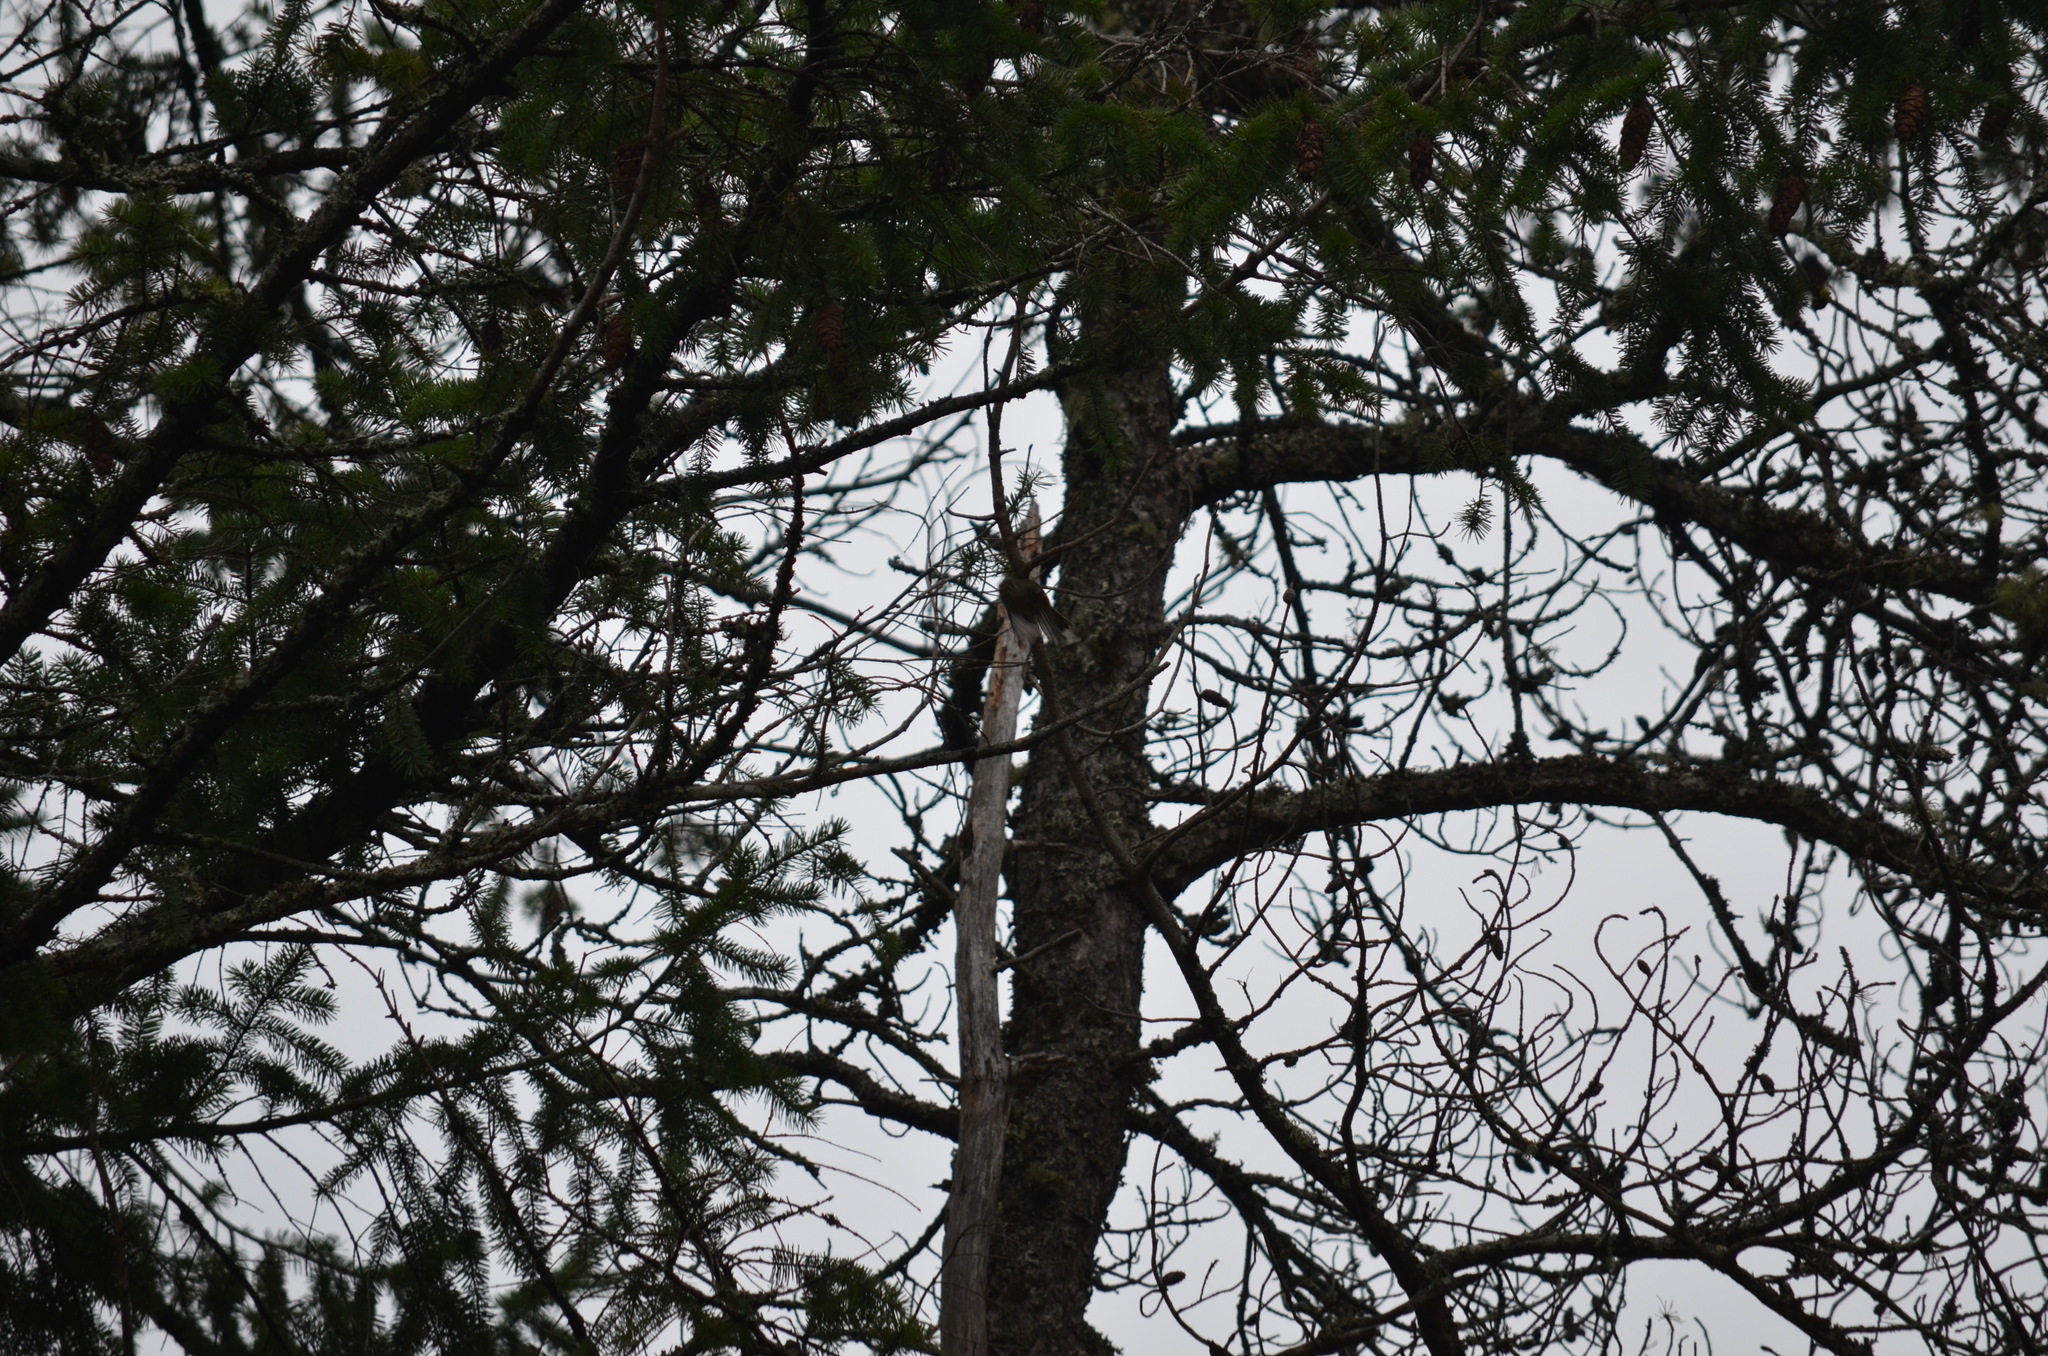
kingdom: Animalia
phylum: Chordata
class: Aves
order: Passeriformes
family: Regulidae
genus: Regulus
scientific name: Regulus calendula
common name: Ruby-crowned kinglet
